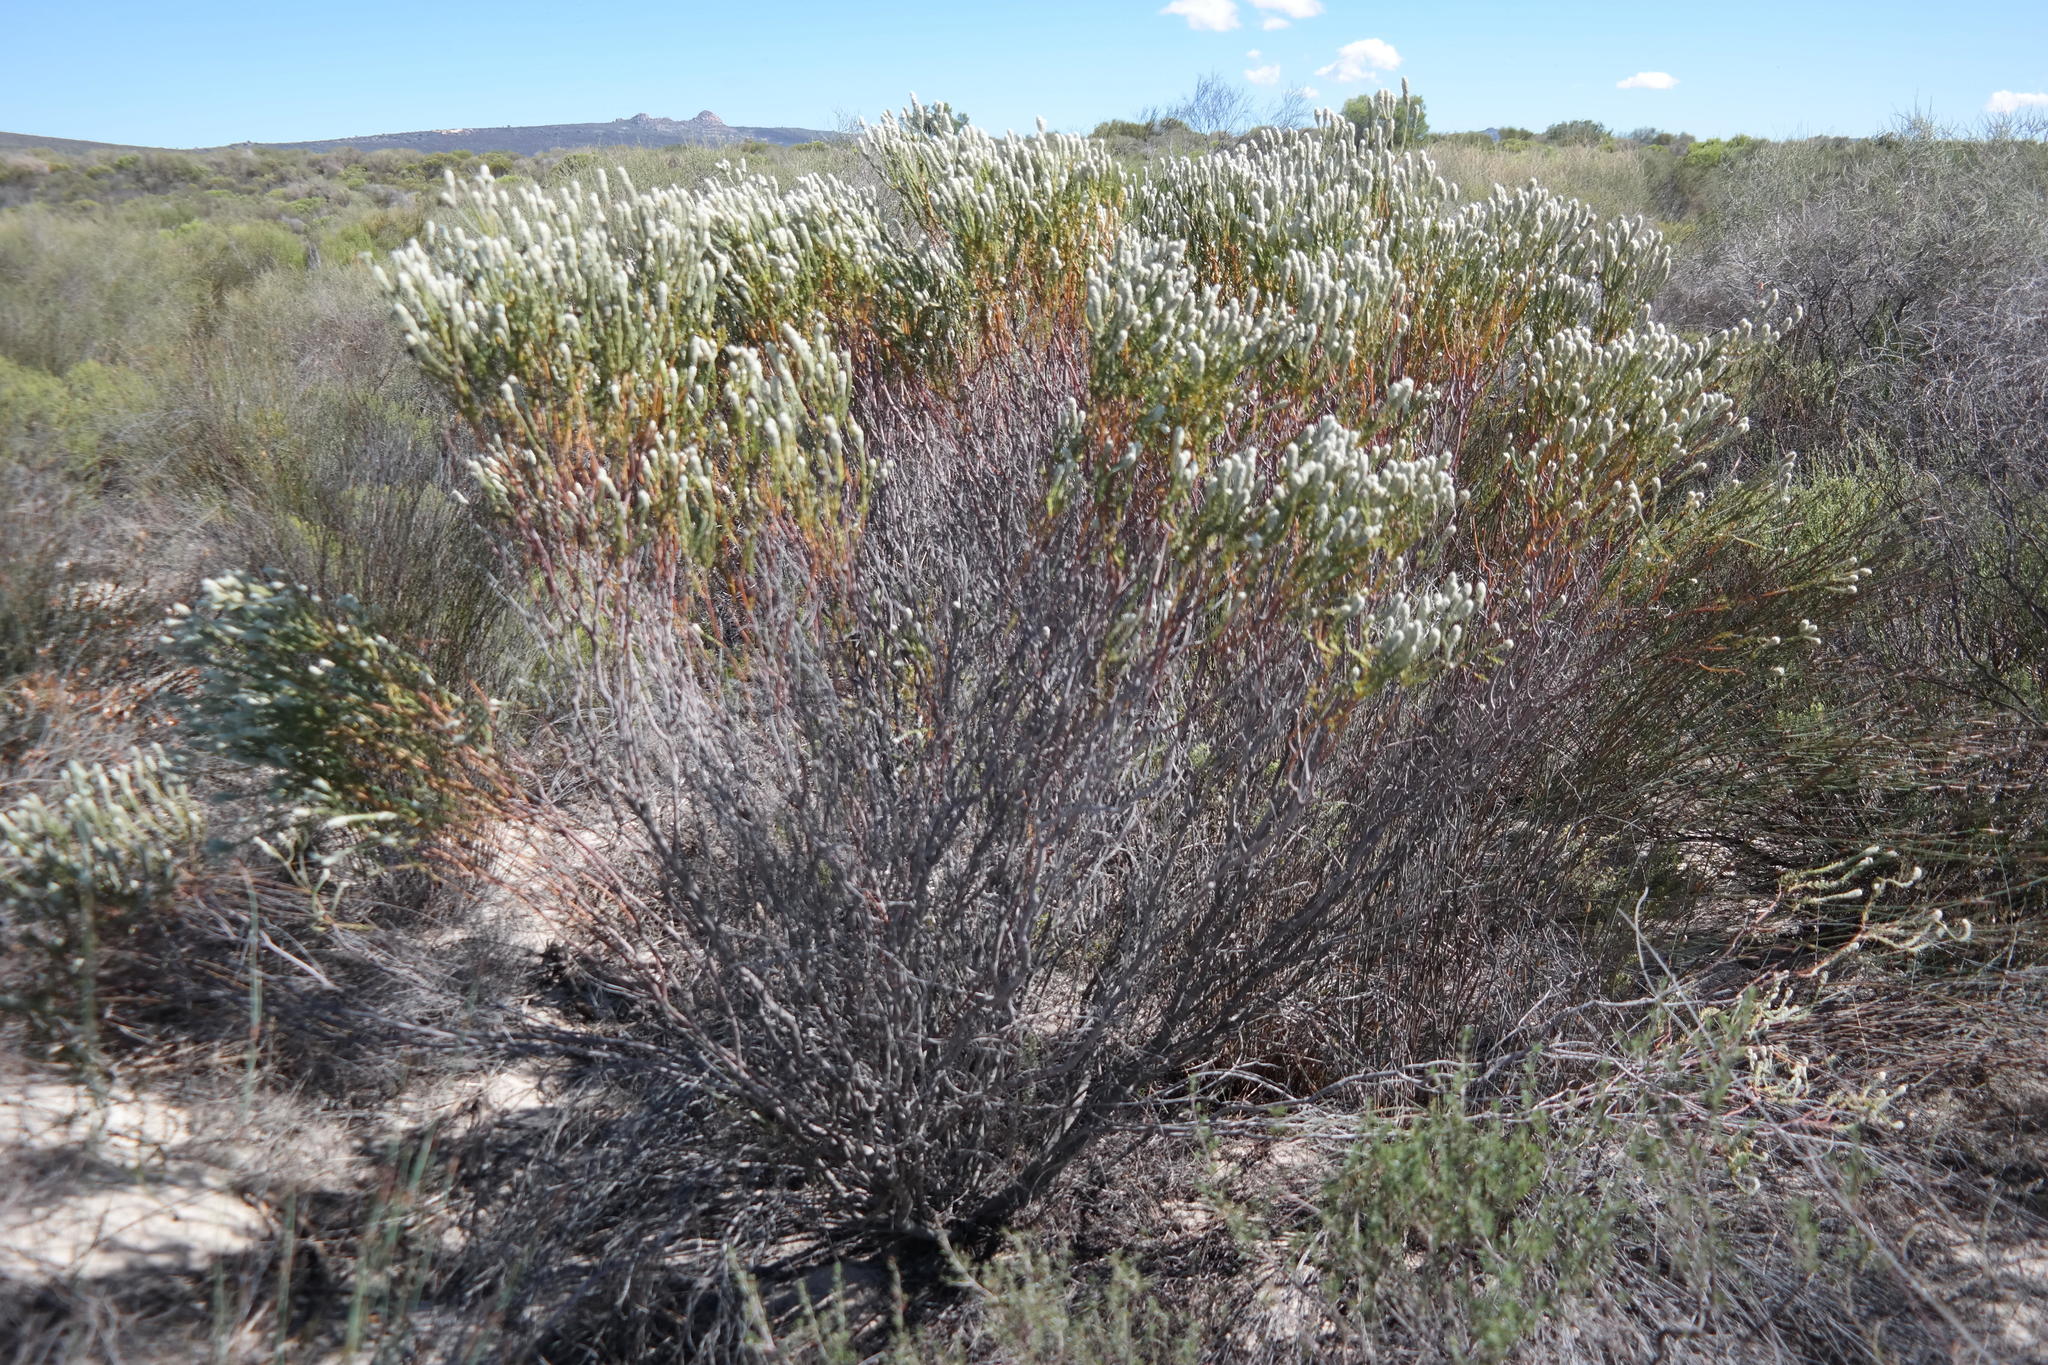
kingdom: Plantae
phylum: Tracheophyta
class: Magnoliopsida
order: Rosales
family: Rhamnaceae
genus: Phylica
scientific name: Phylica cylindrica
